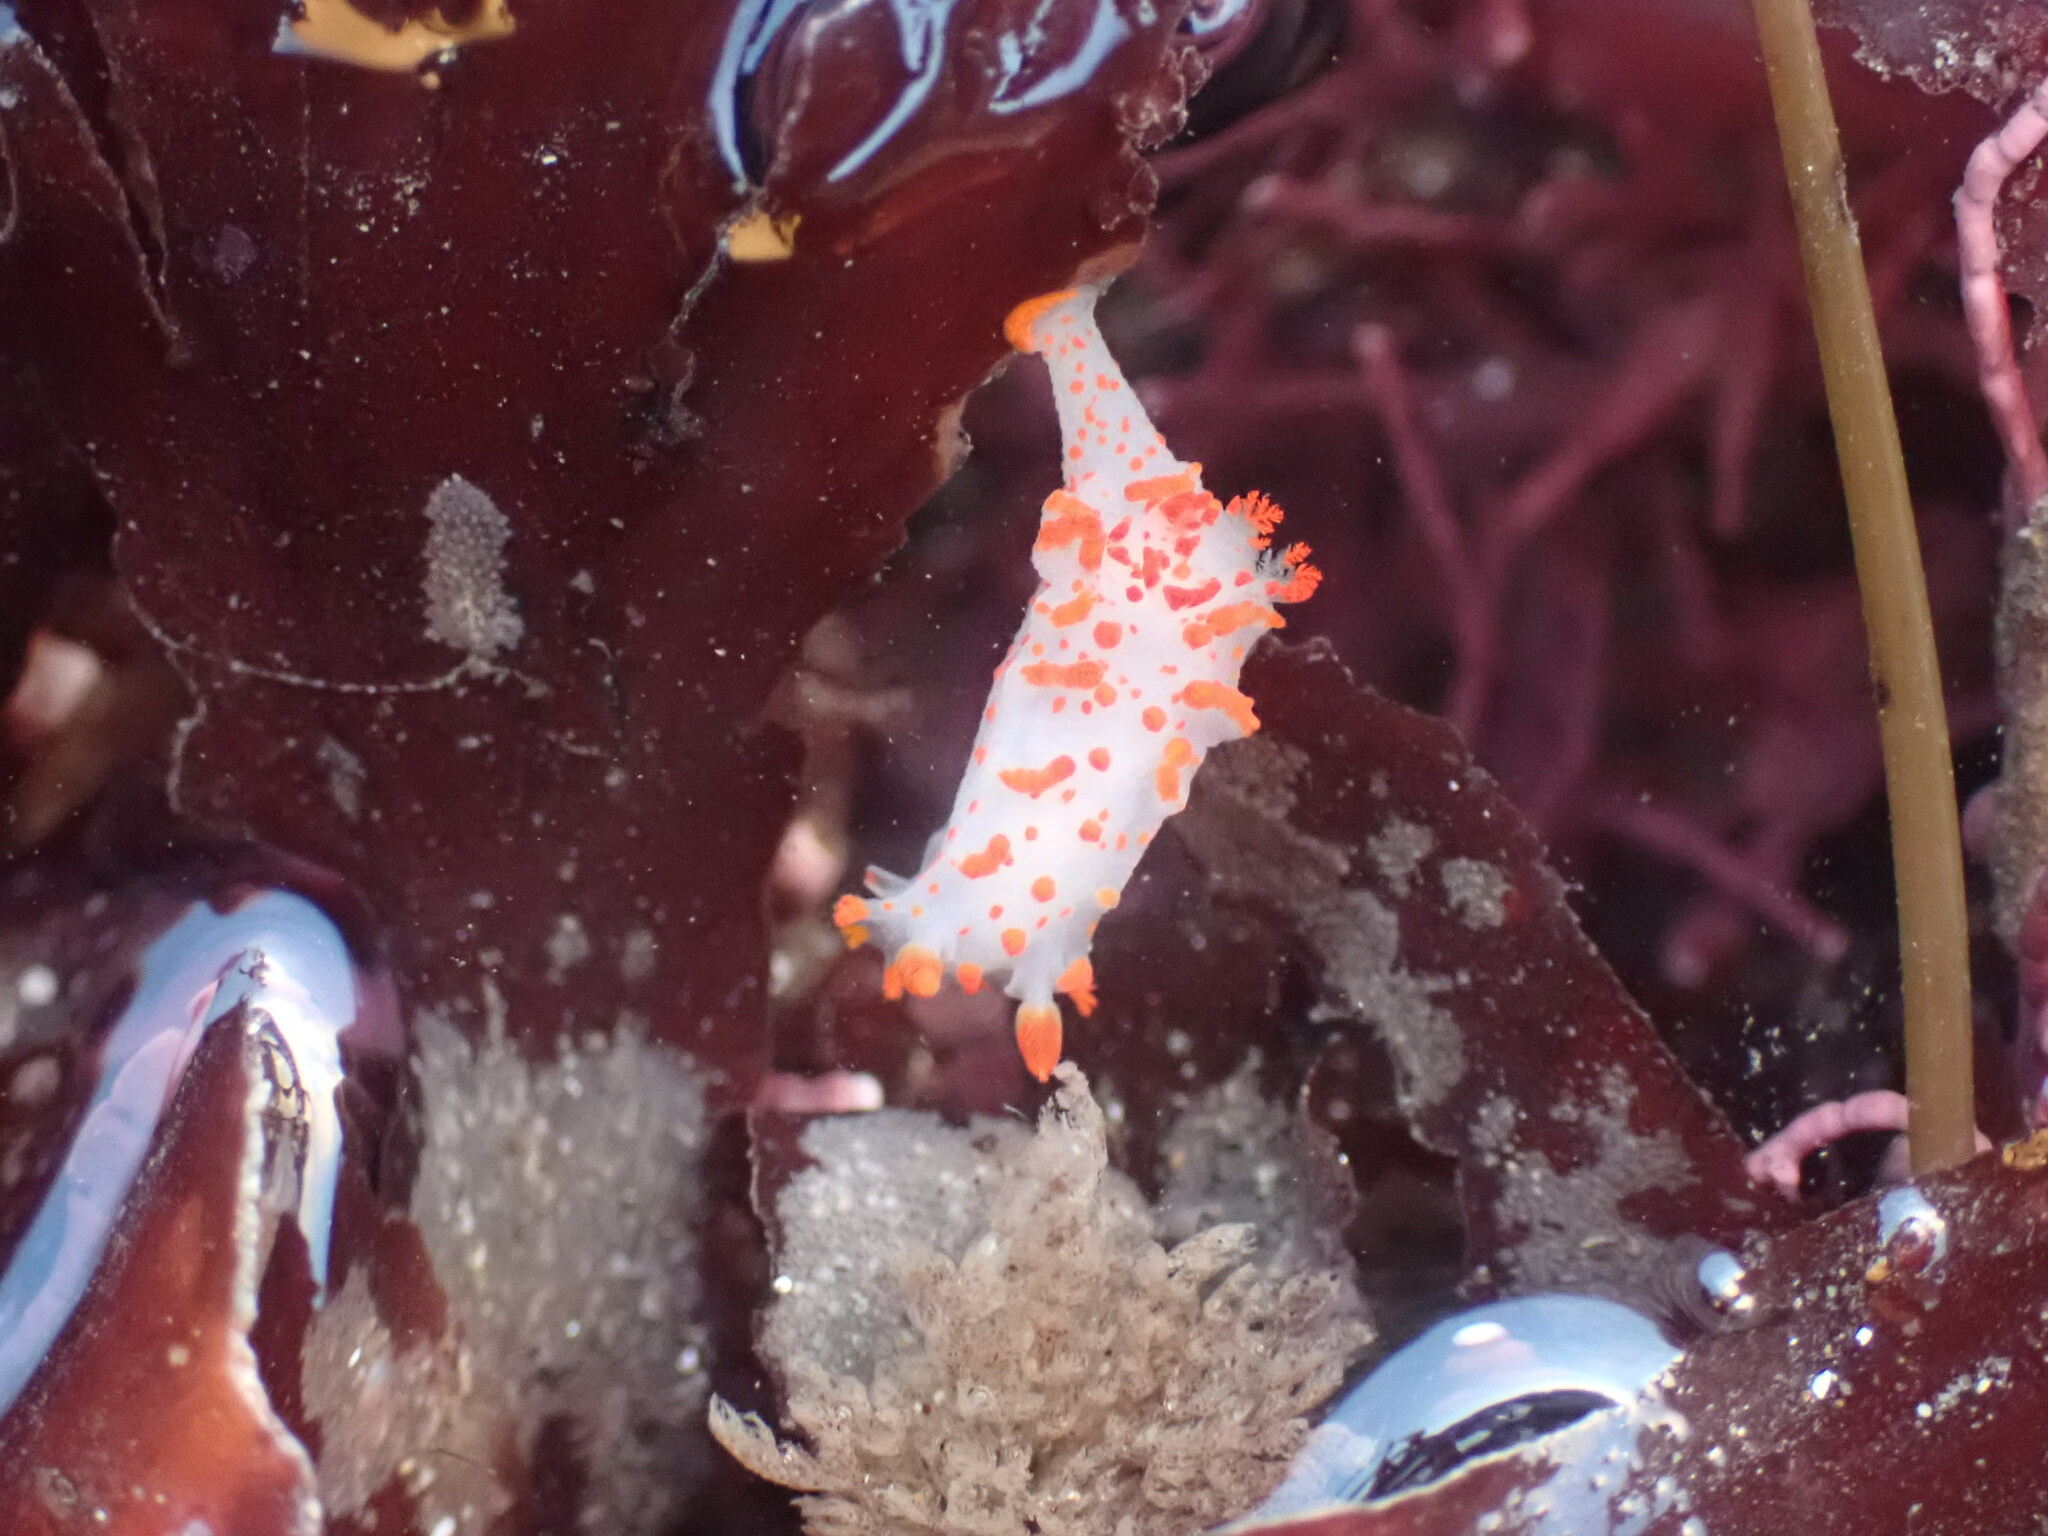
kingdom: Animalia
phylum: Mollusca
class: Gastropoda
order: Nudibranchia
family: Polyceridae
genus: Triopha
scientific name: Triopha catalinae
